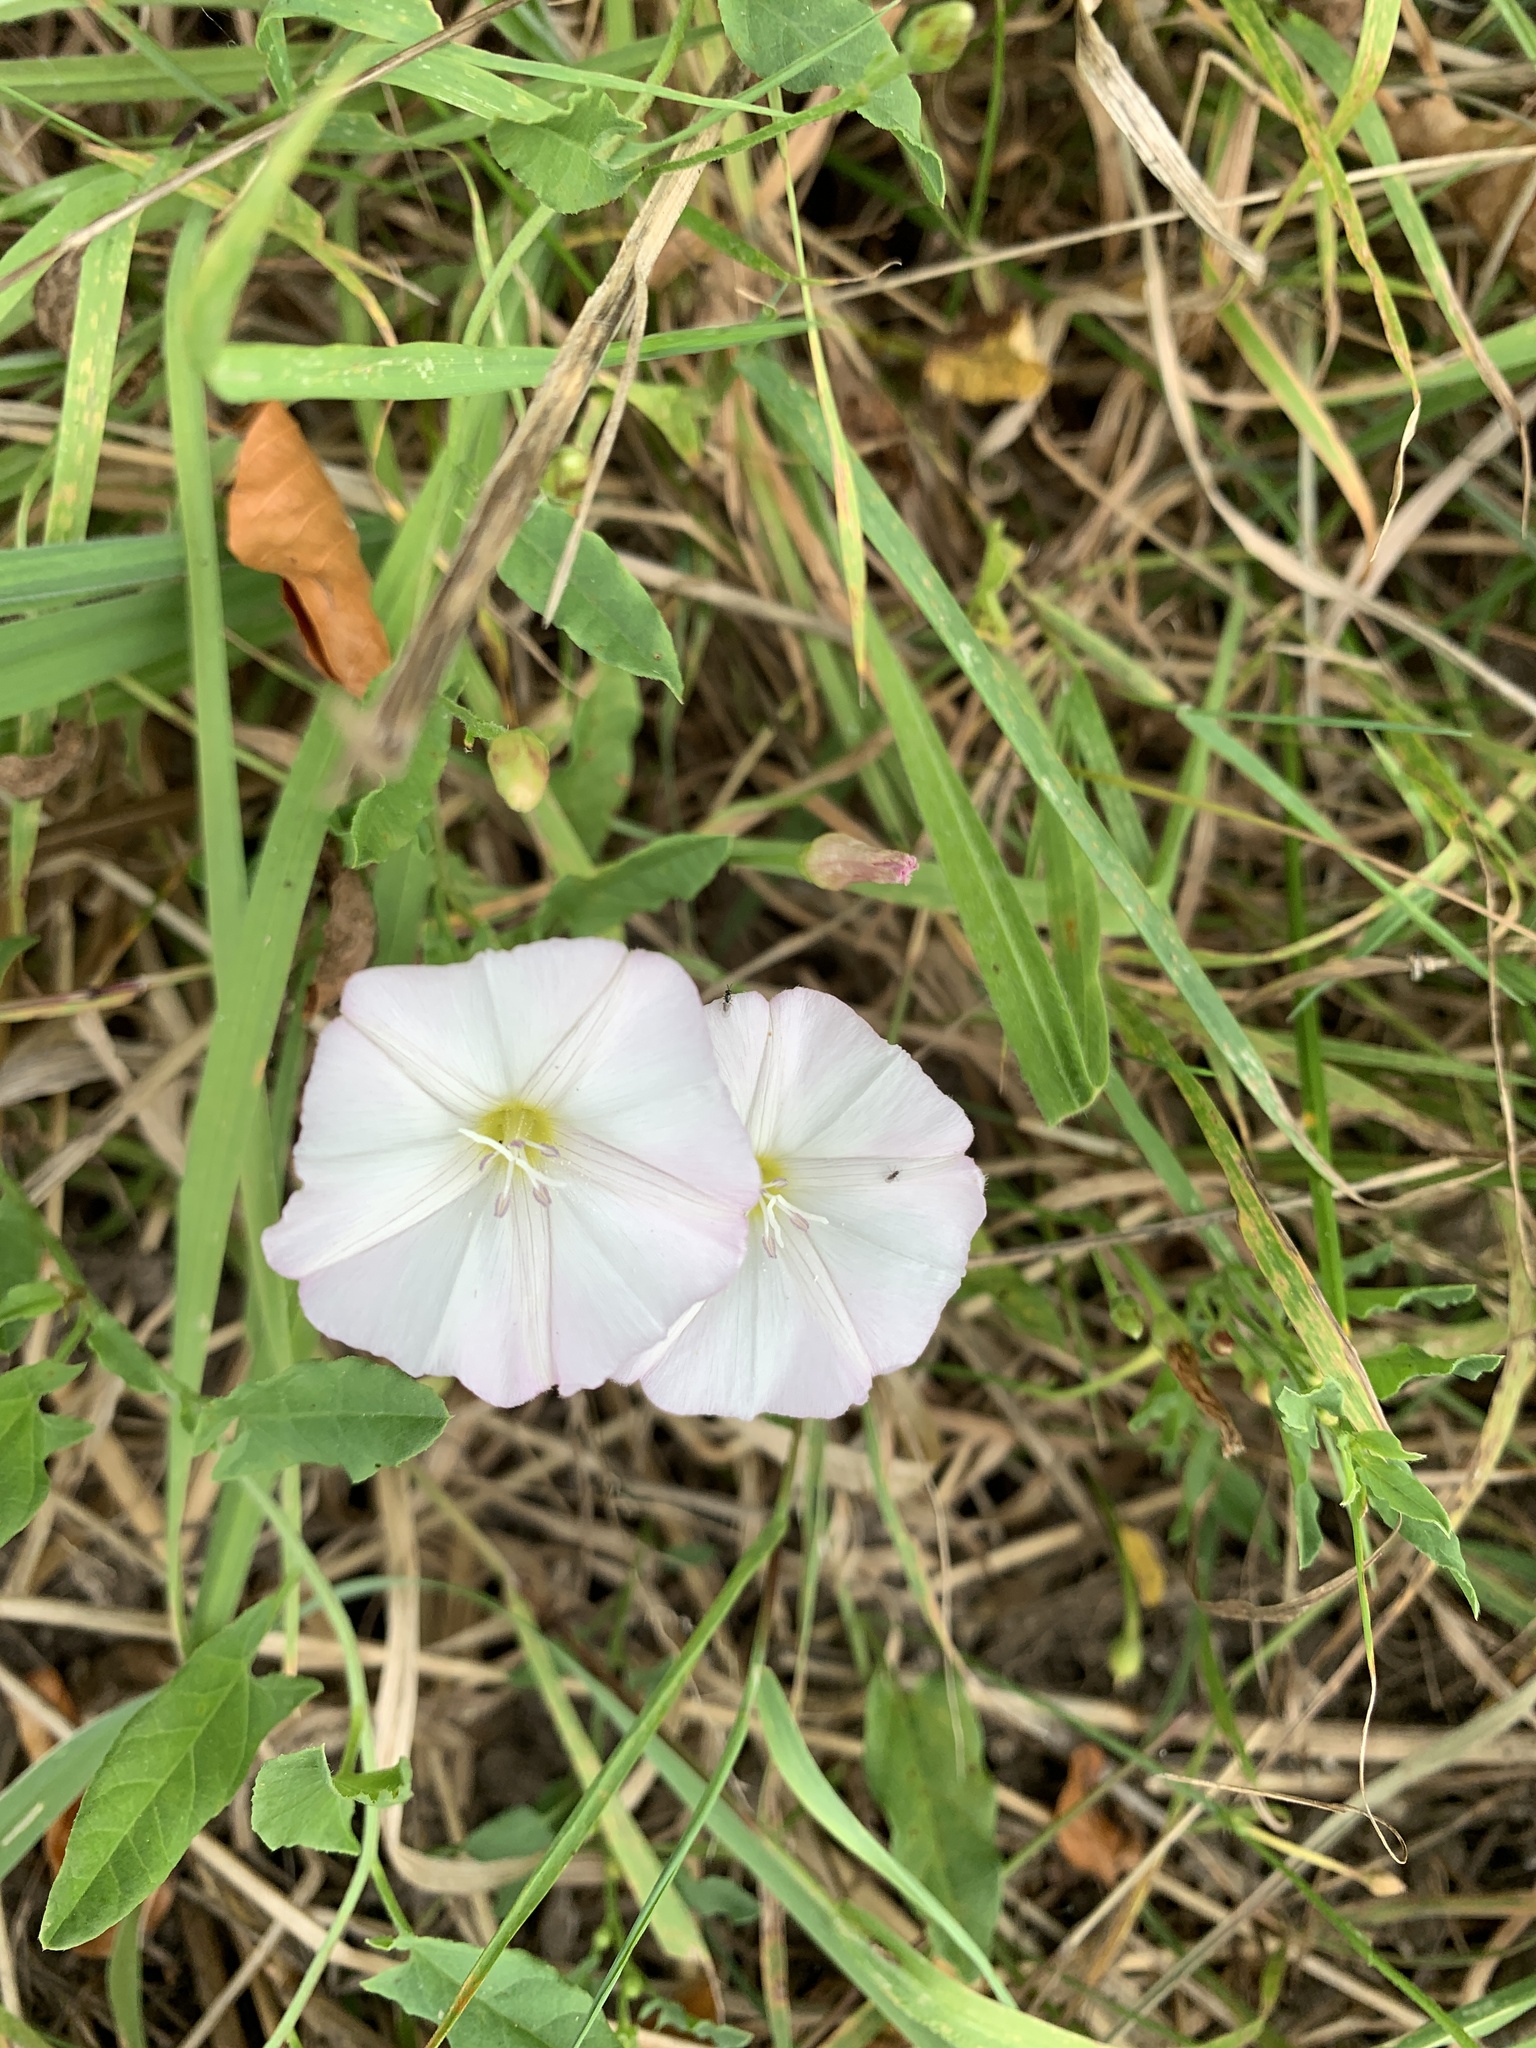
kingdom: Plantae
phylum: Tracheophyta
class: Magnoliopsida
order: Solanales
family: Convolvulaceae
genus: Convolvulus
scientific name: Convolvulus arvensis
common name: Field bindweed
